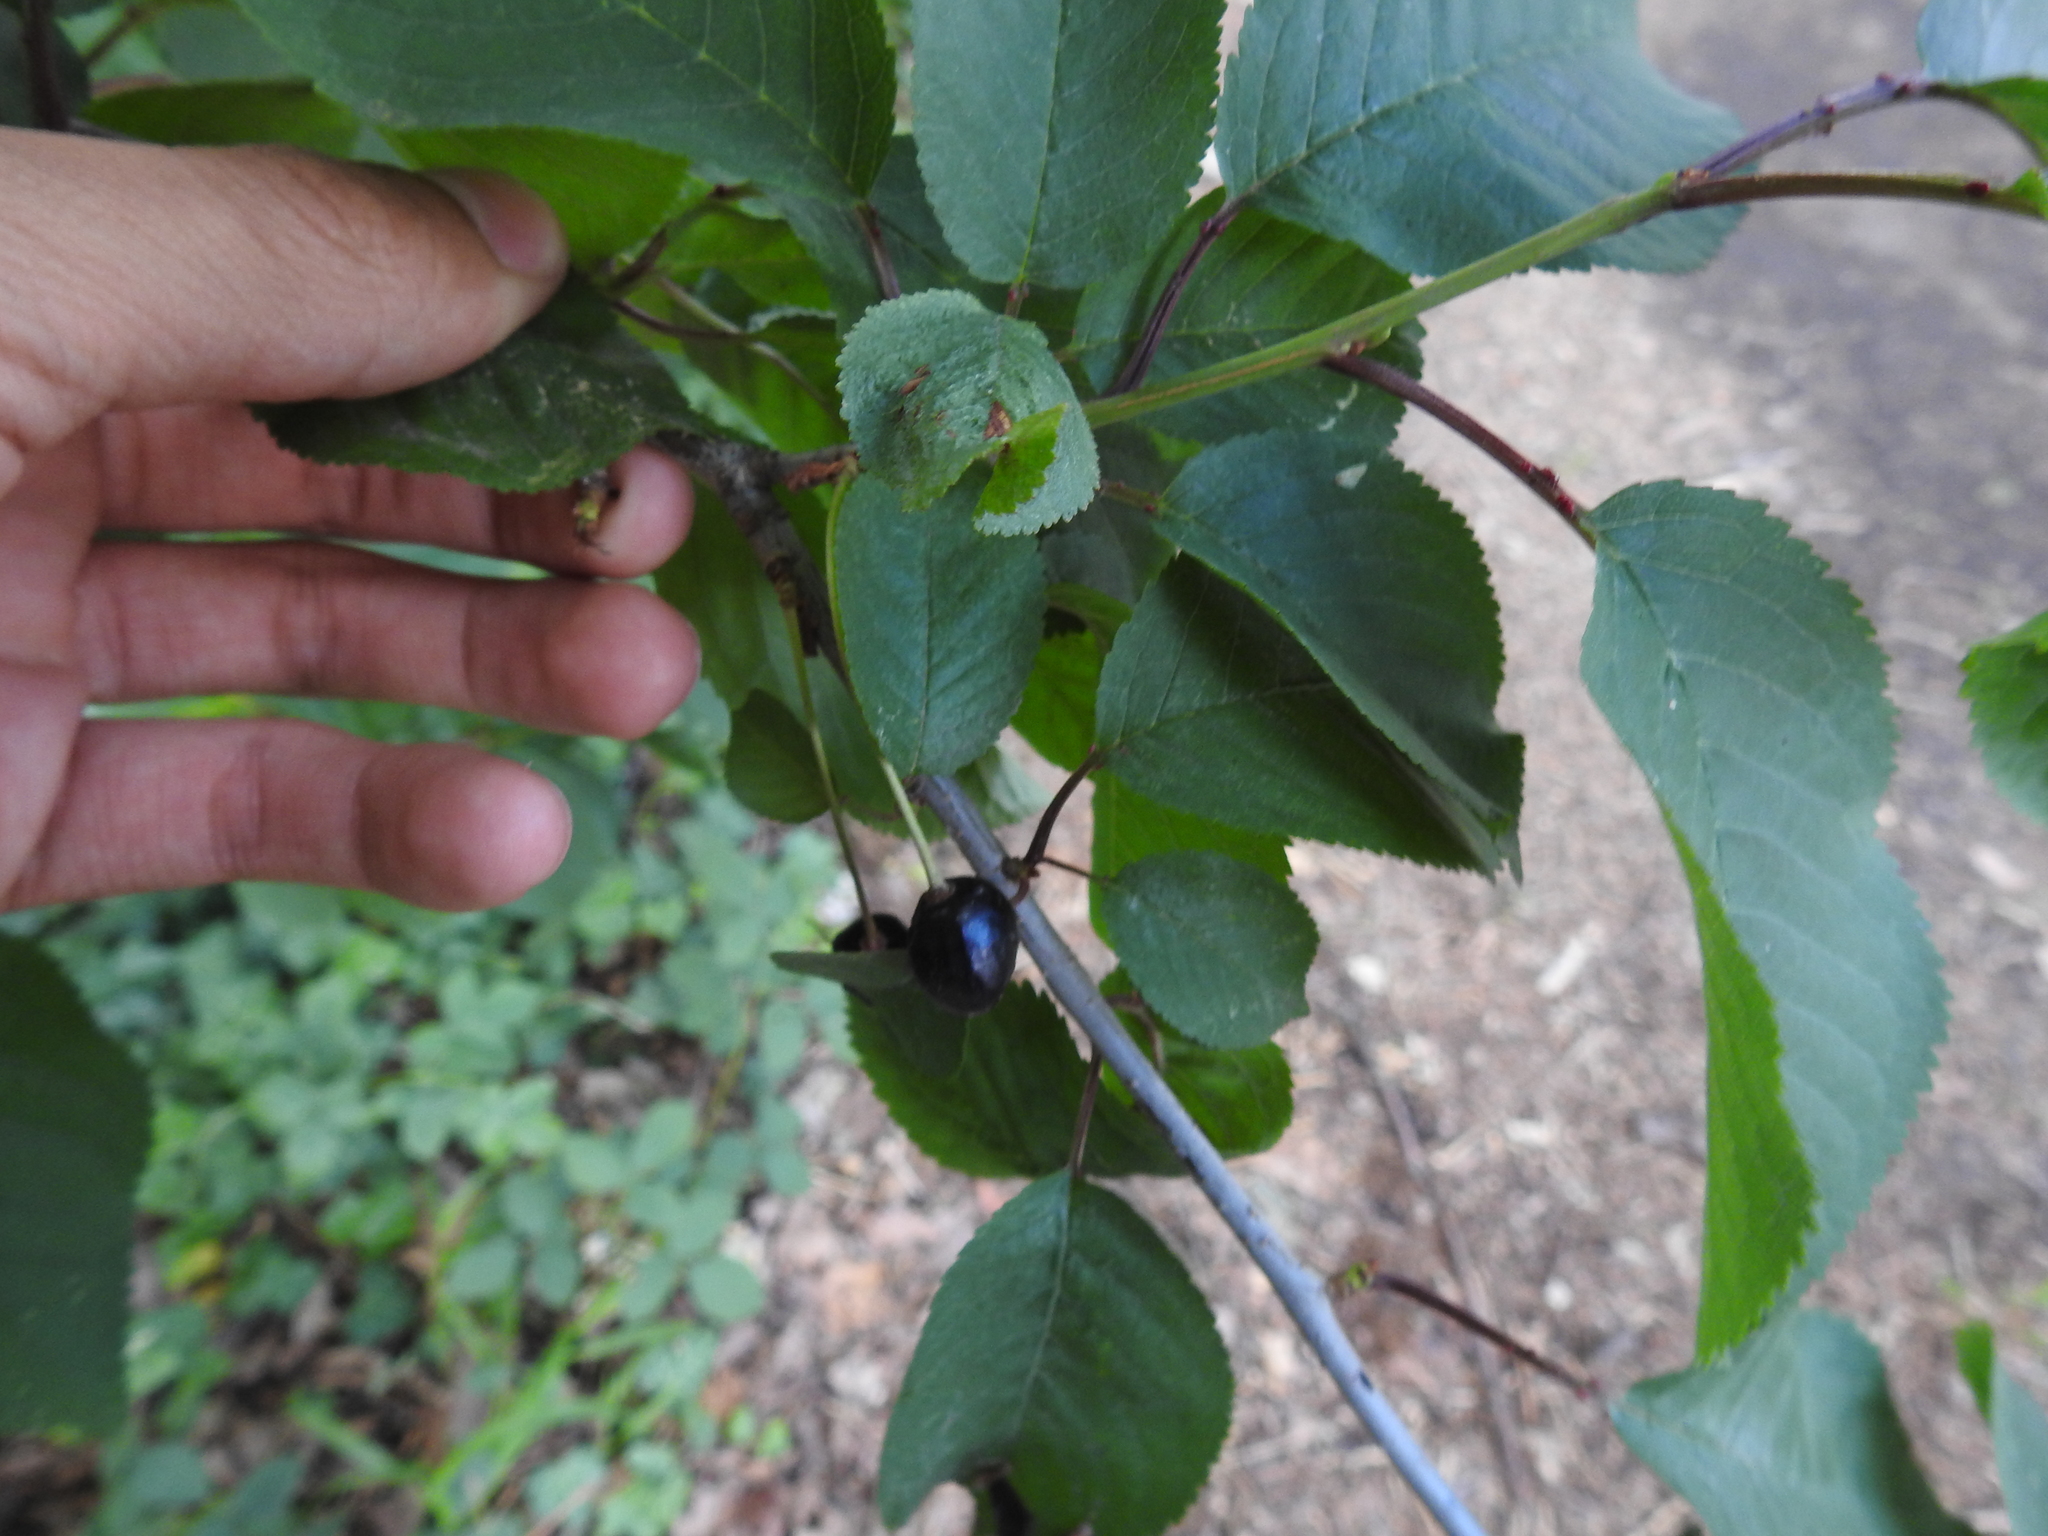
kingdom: Plantae
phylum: Tracheophyta
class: Magnoliopsida
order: Rosales
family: Rosaceae
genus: Prunus
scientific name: Prunus avium
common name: Sweet cherry
